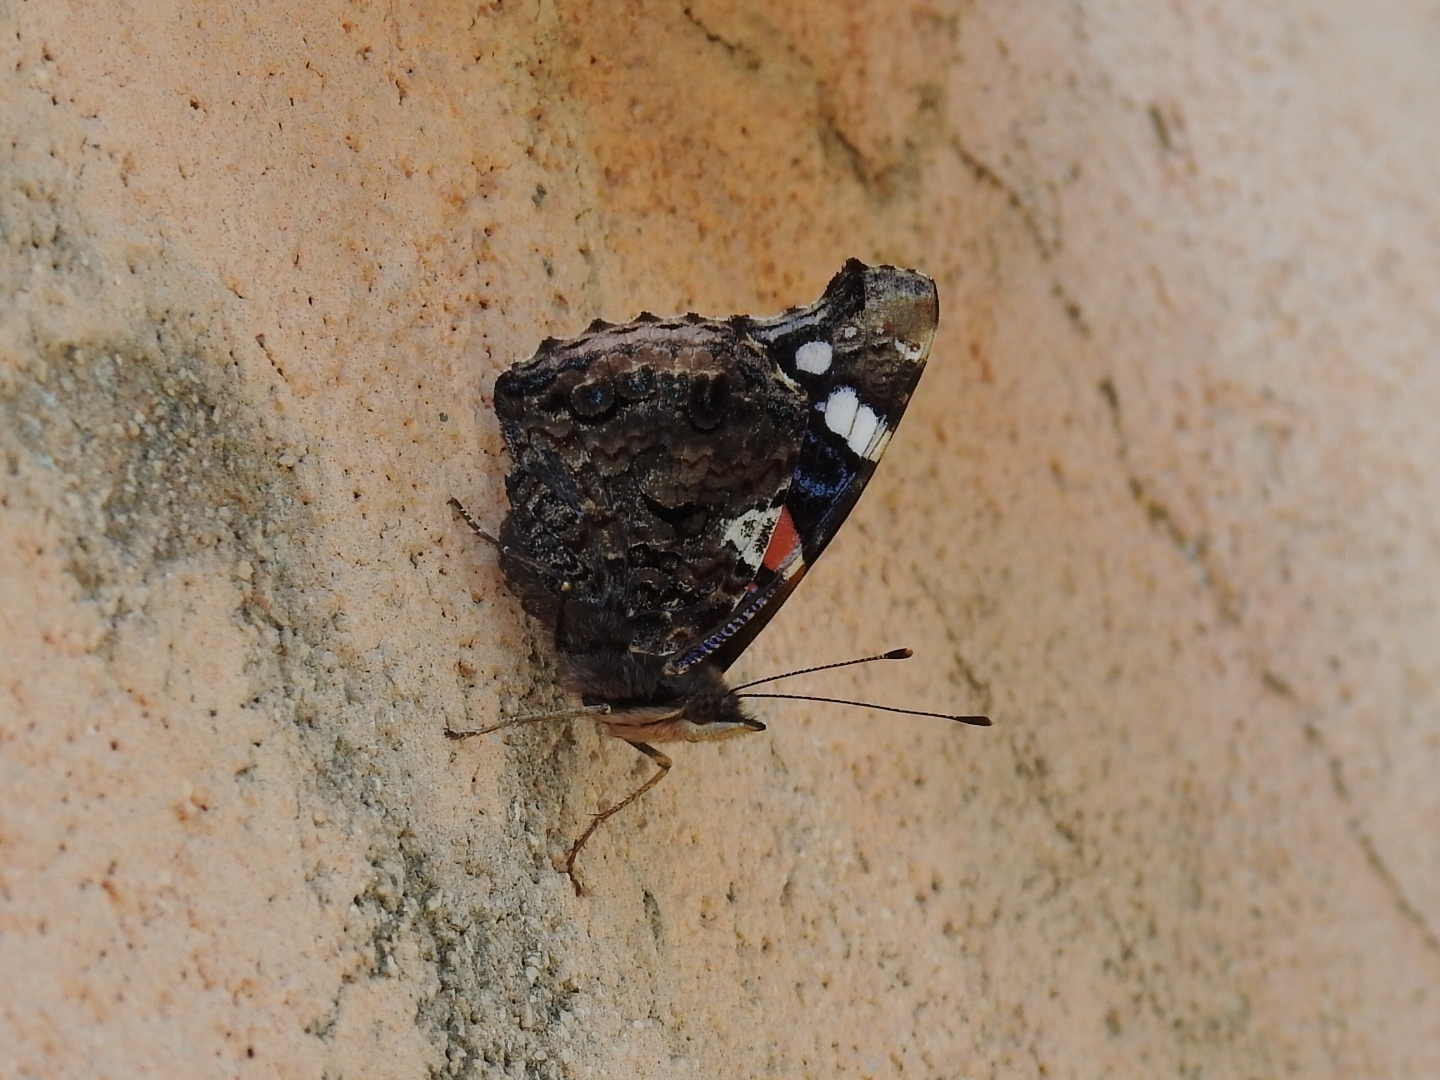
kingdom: Animalia
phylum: Arthropoda
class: Insecta
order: Lepidoptera
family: Nymphalidae
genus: Vanessa
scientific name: Vanessa atalanta
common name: Red admiral
